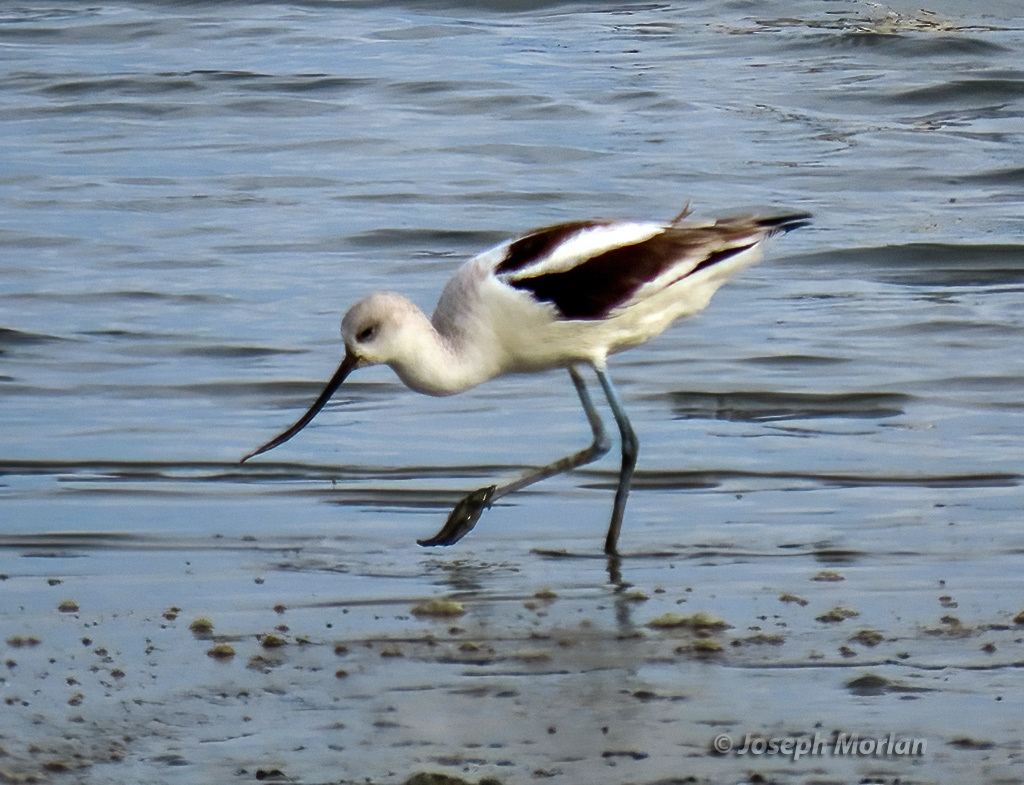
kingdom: Animalia
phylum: Chordata
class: Aves
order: Charadriiformes
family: Recurvirostridae
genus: Recurvirostra
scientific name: Recurvirostra americana
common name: American avocet
